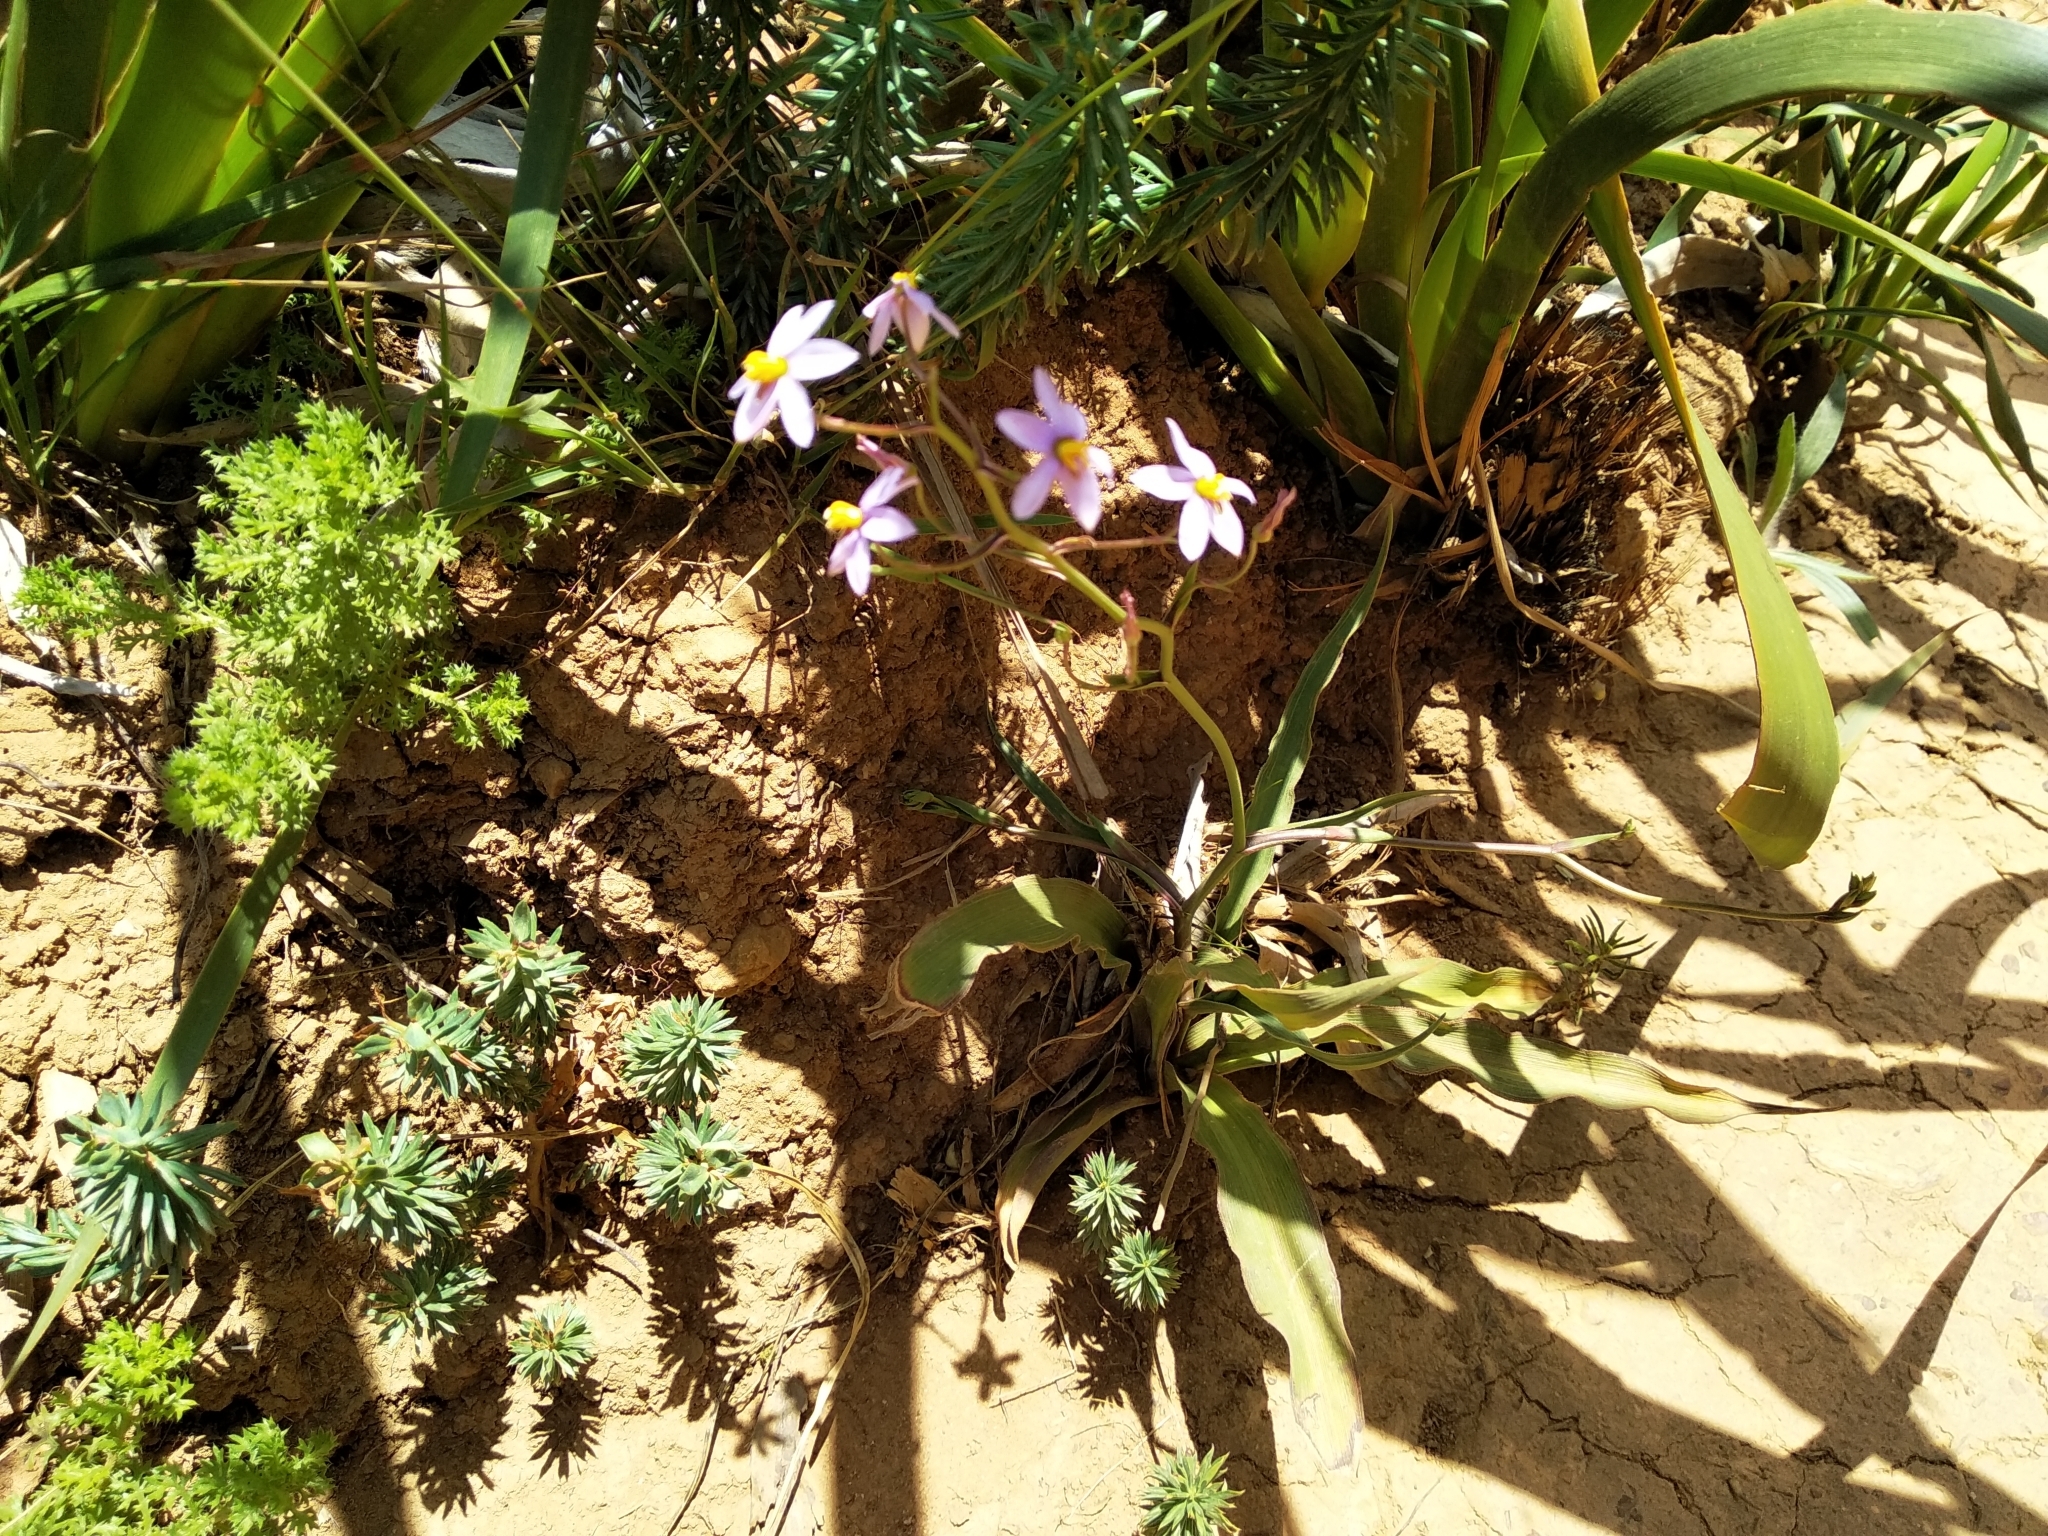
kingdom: Plantae
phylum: Tracheophyta
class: Liliopsida
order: Asparagales
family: Tecophilaeaceae
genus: Cyanella
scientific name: Cyanella hyacinthoides
